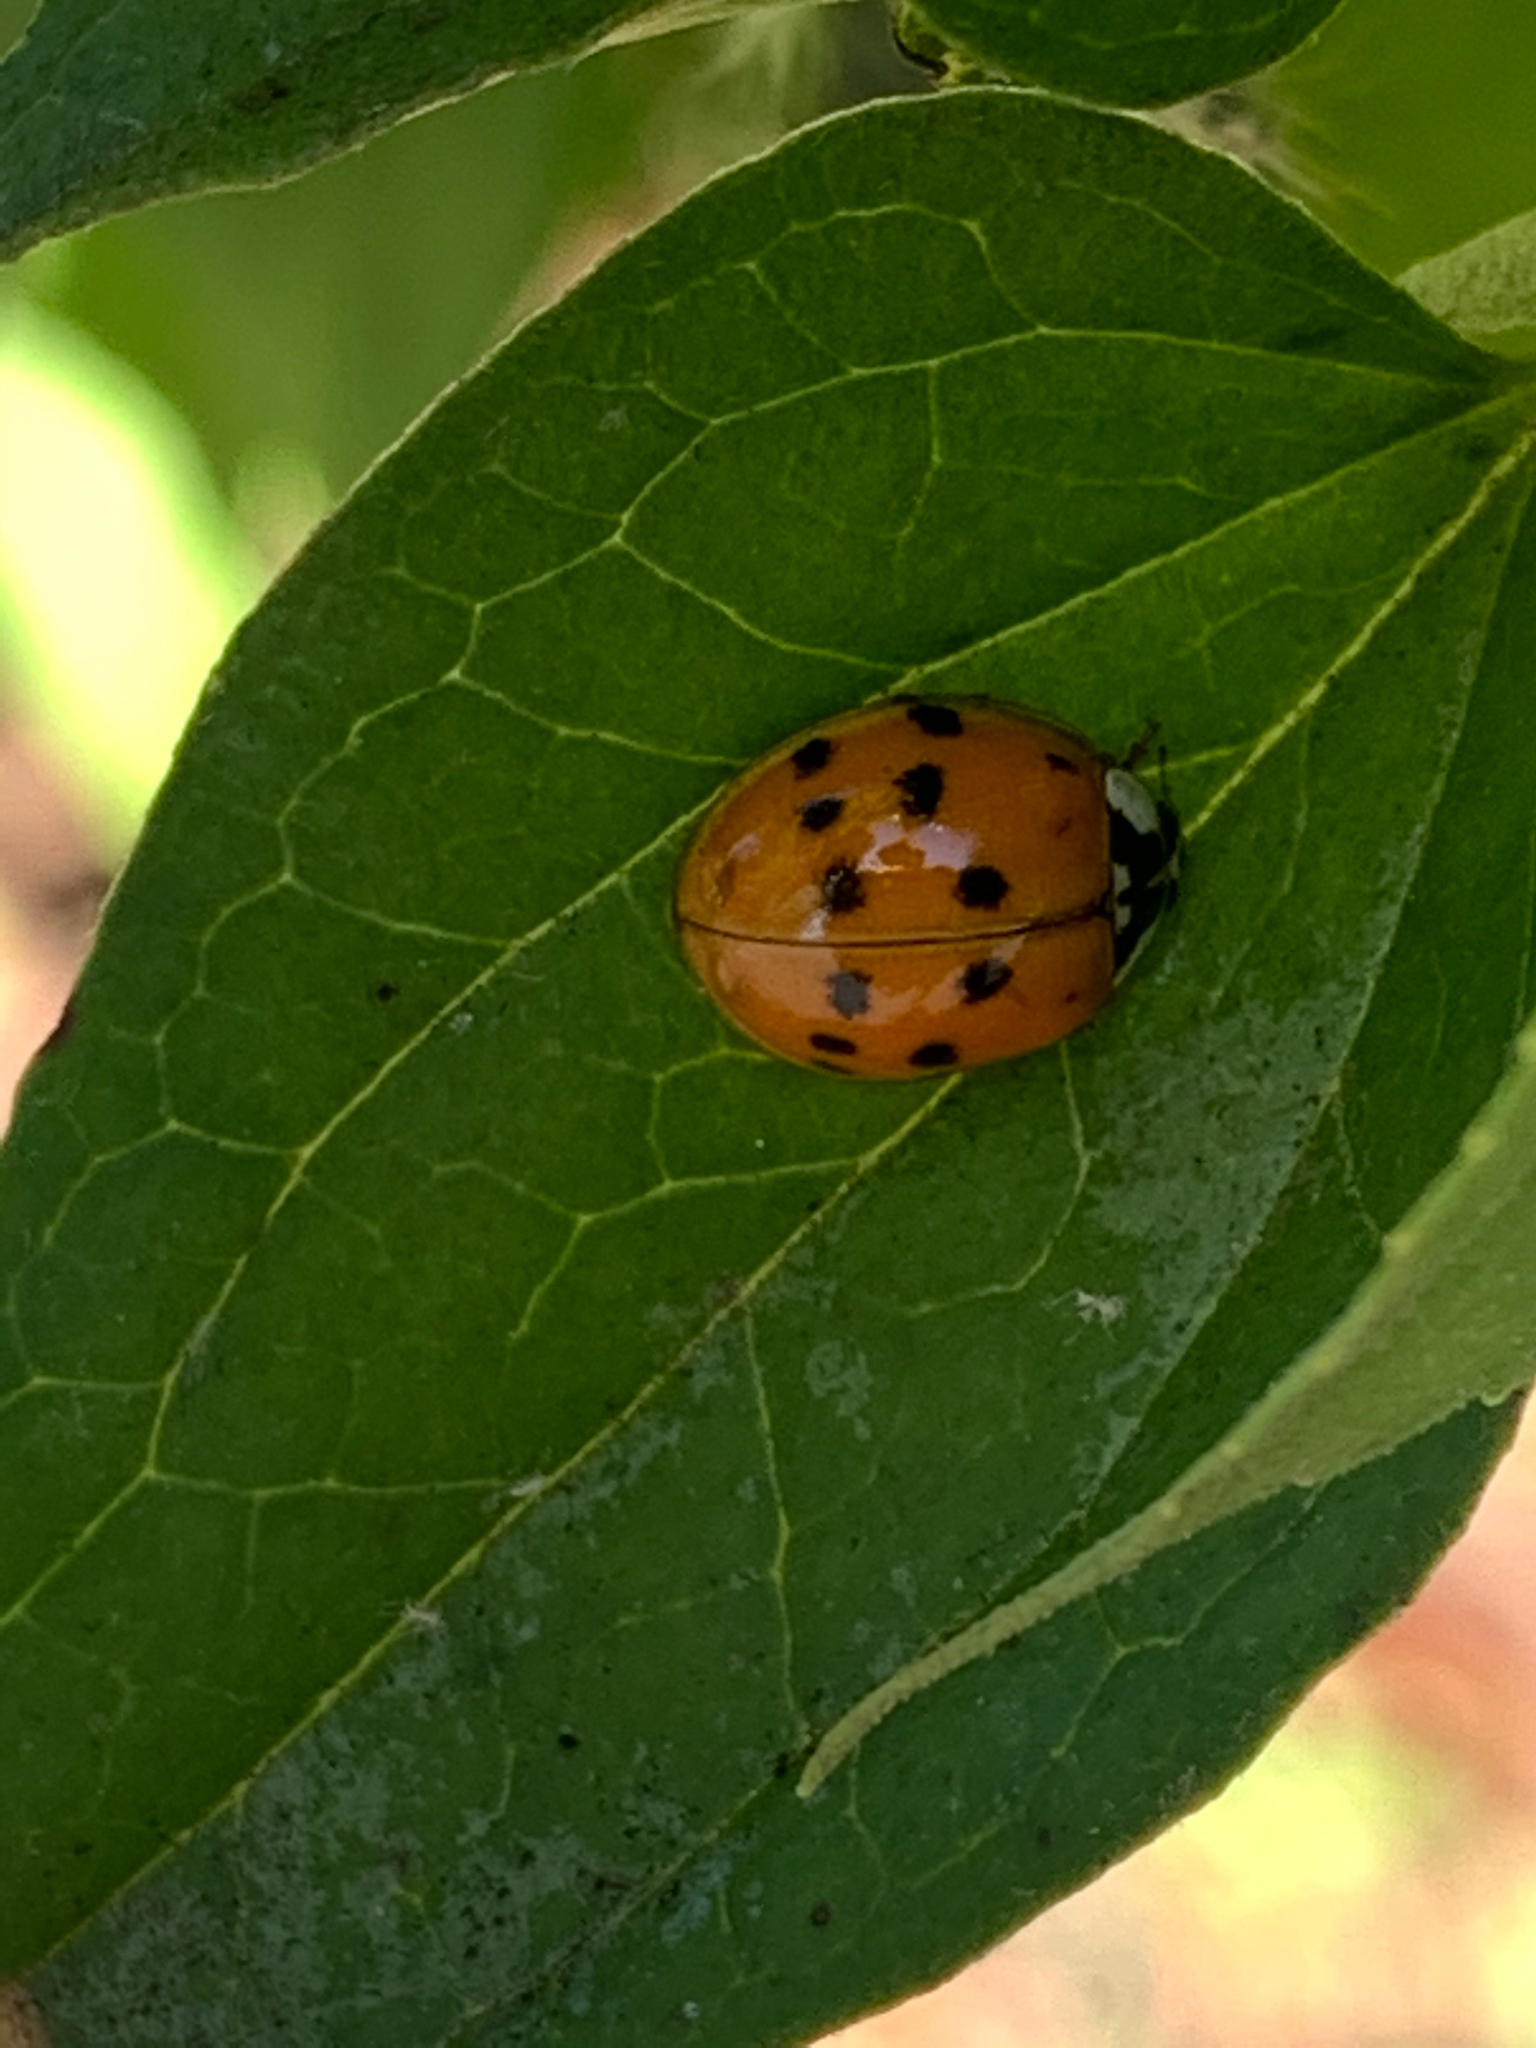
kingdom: Animalia
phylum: Arthropoda
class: Insecta
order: Coleoptera
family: Coccinellidae
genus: Harmonia
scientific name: Harmonia axyridis
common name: Harlequin ladybird
